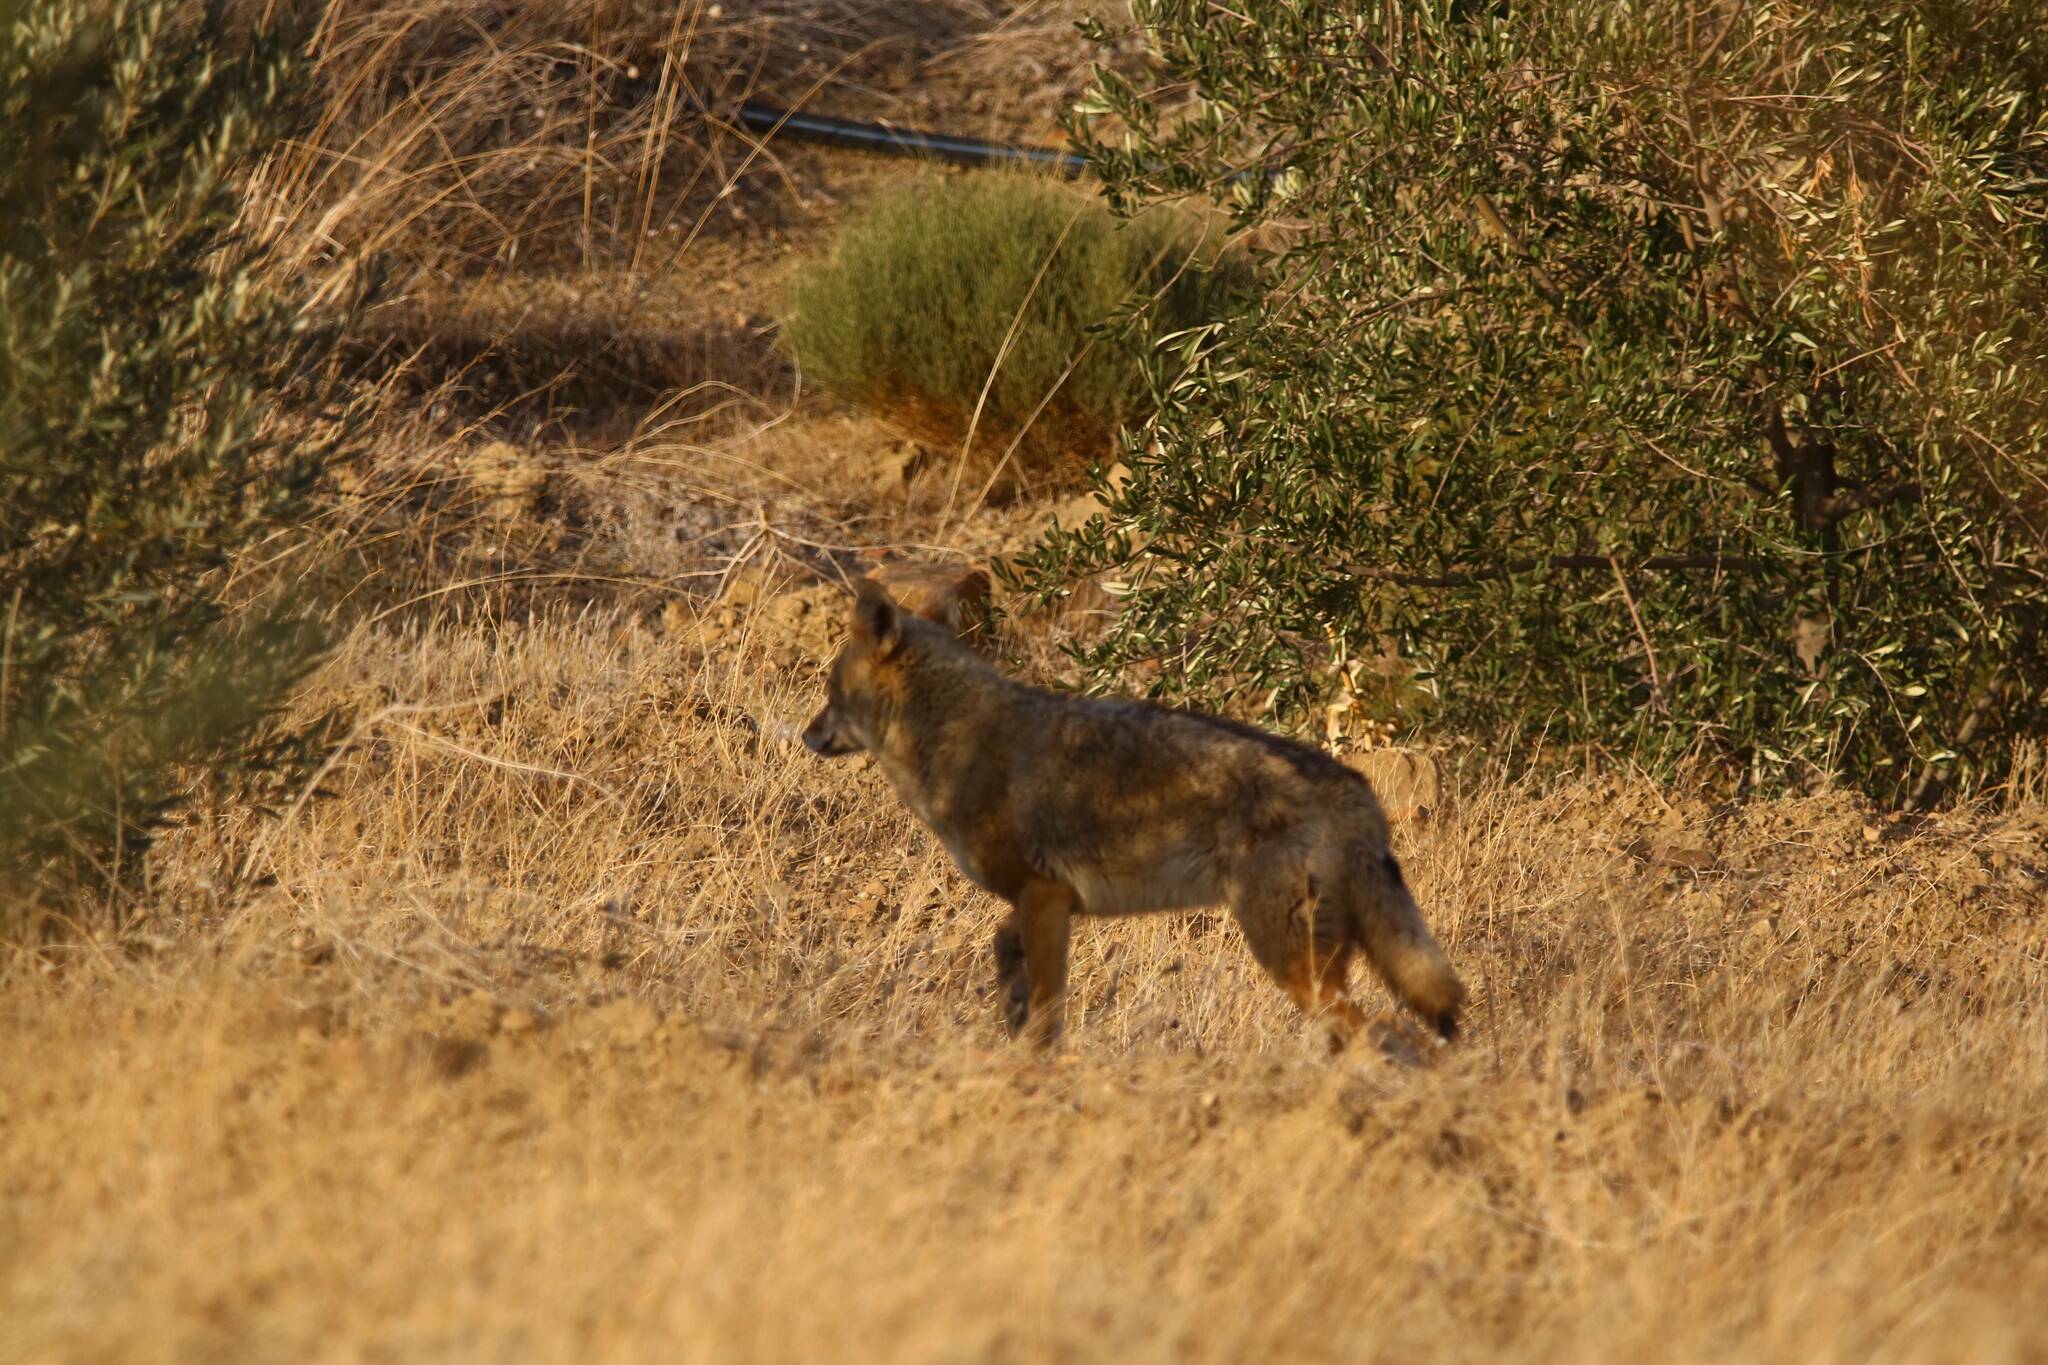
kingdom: Animalia
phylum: Chordata
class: Mammalia
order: Carnivora
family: Canidae
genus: Canis
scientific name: Canis lupaster
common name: African golden wolf
